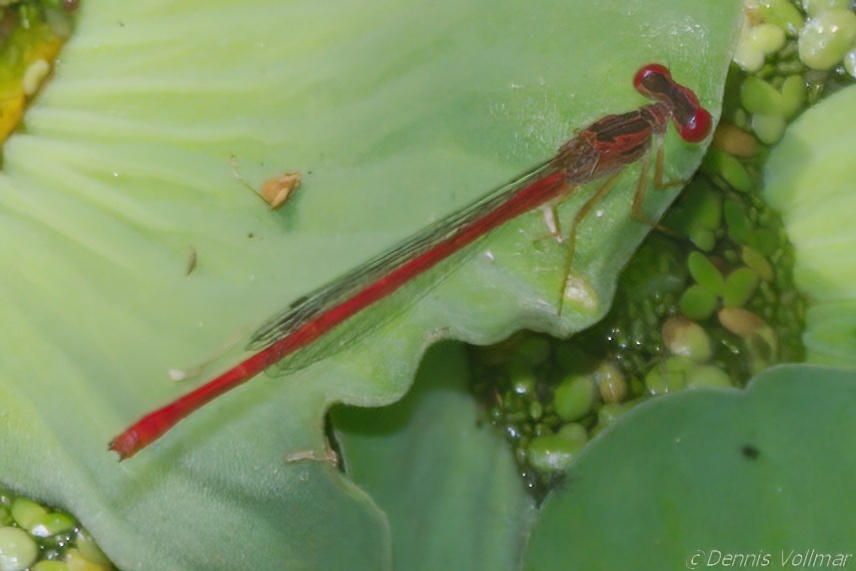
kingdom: Animalia
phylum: Arthropoda
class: Insecta
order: Odonata
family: Coenagrionidae
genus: Telebasis
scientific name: Telebasis byersi
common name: Duckweed firetail
